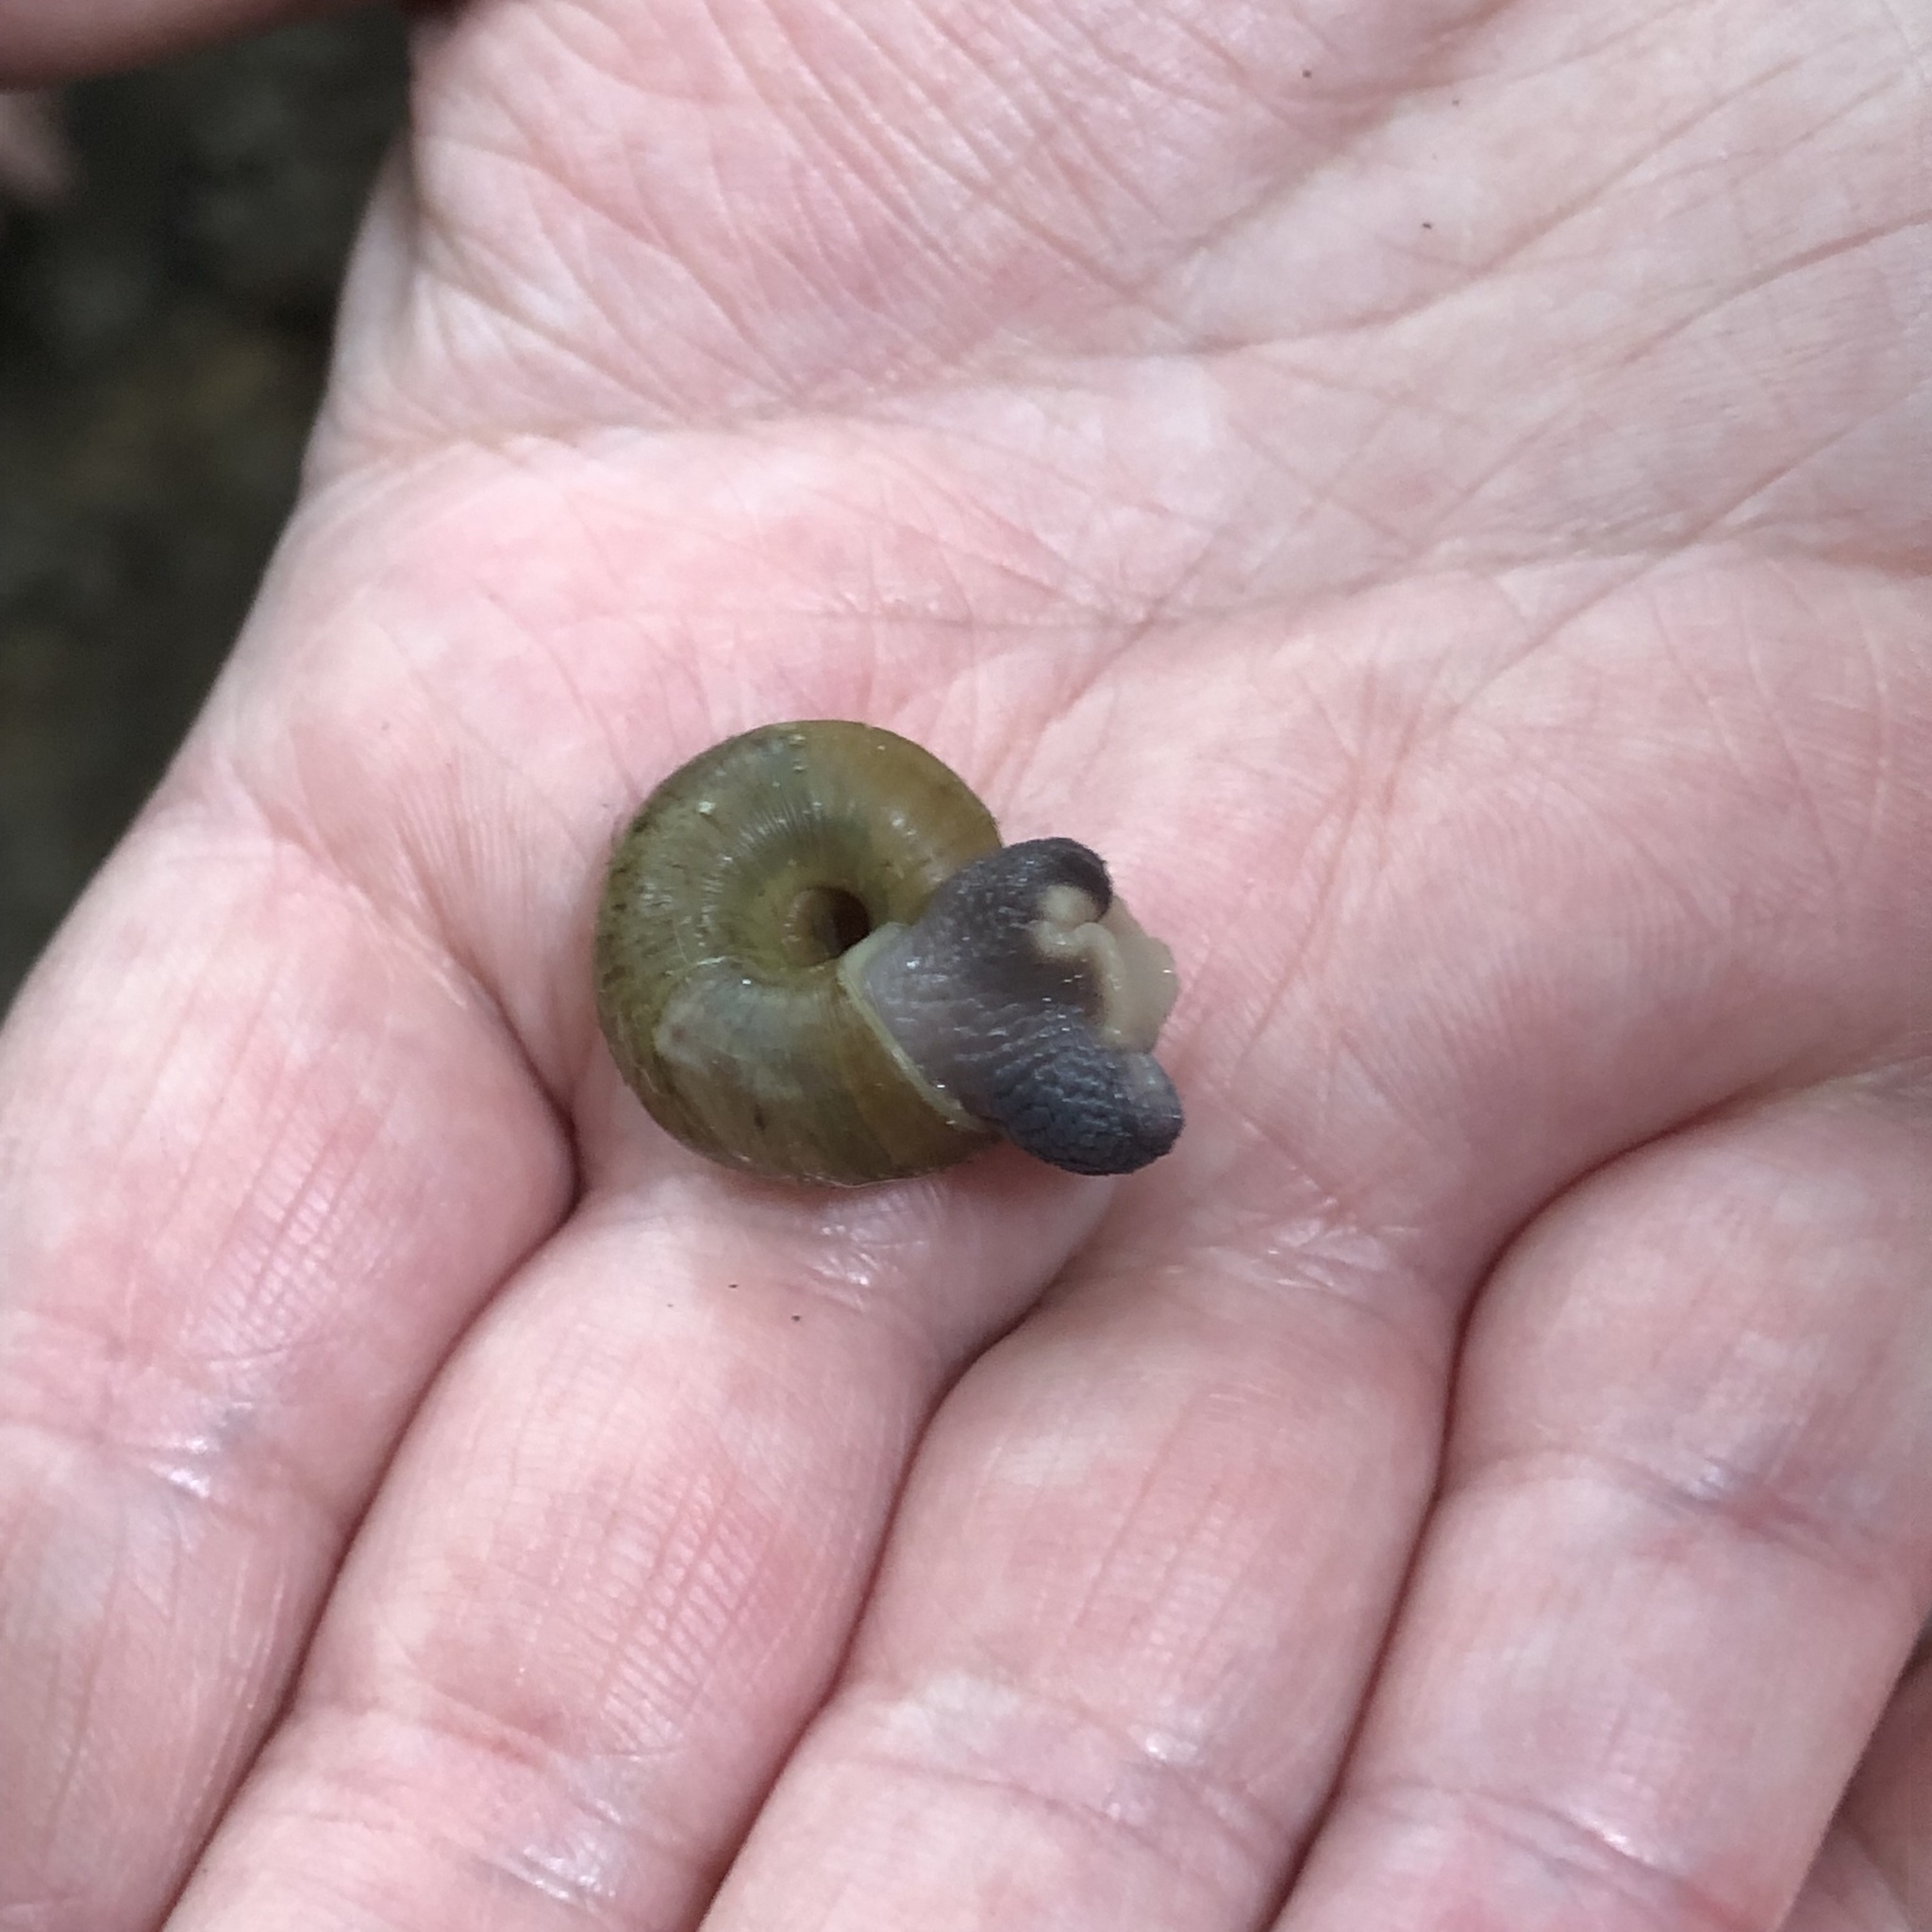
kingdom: Animalia
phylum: Mollusca
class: Gastropoda
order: Stylommatophora
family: Haplotrematidae
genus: Haplotrema
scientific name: Haplotrema vancouverense
